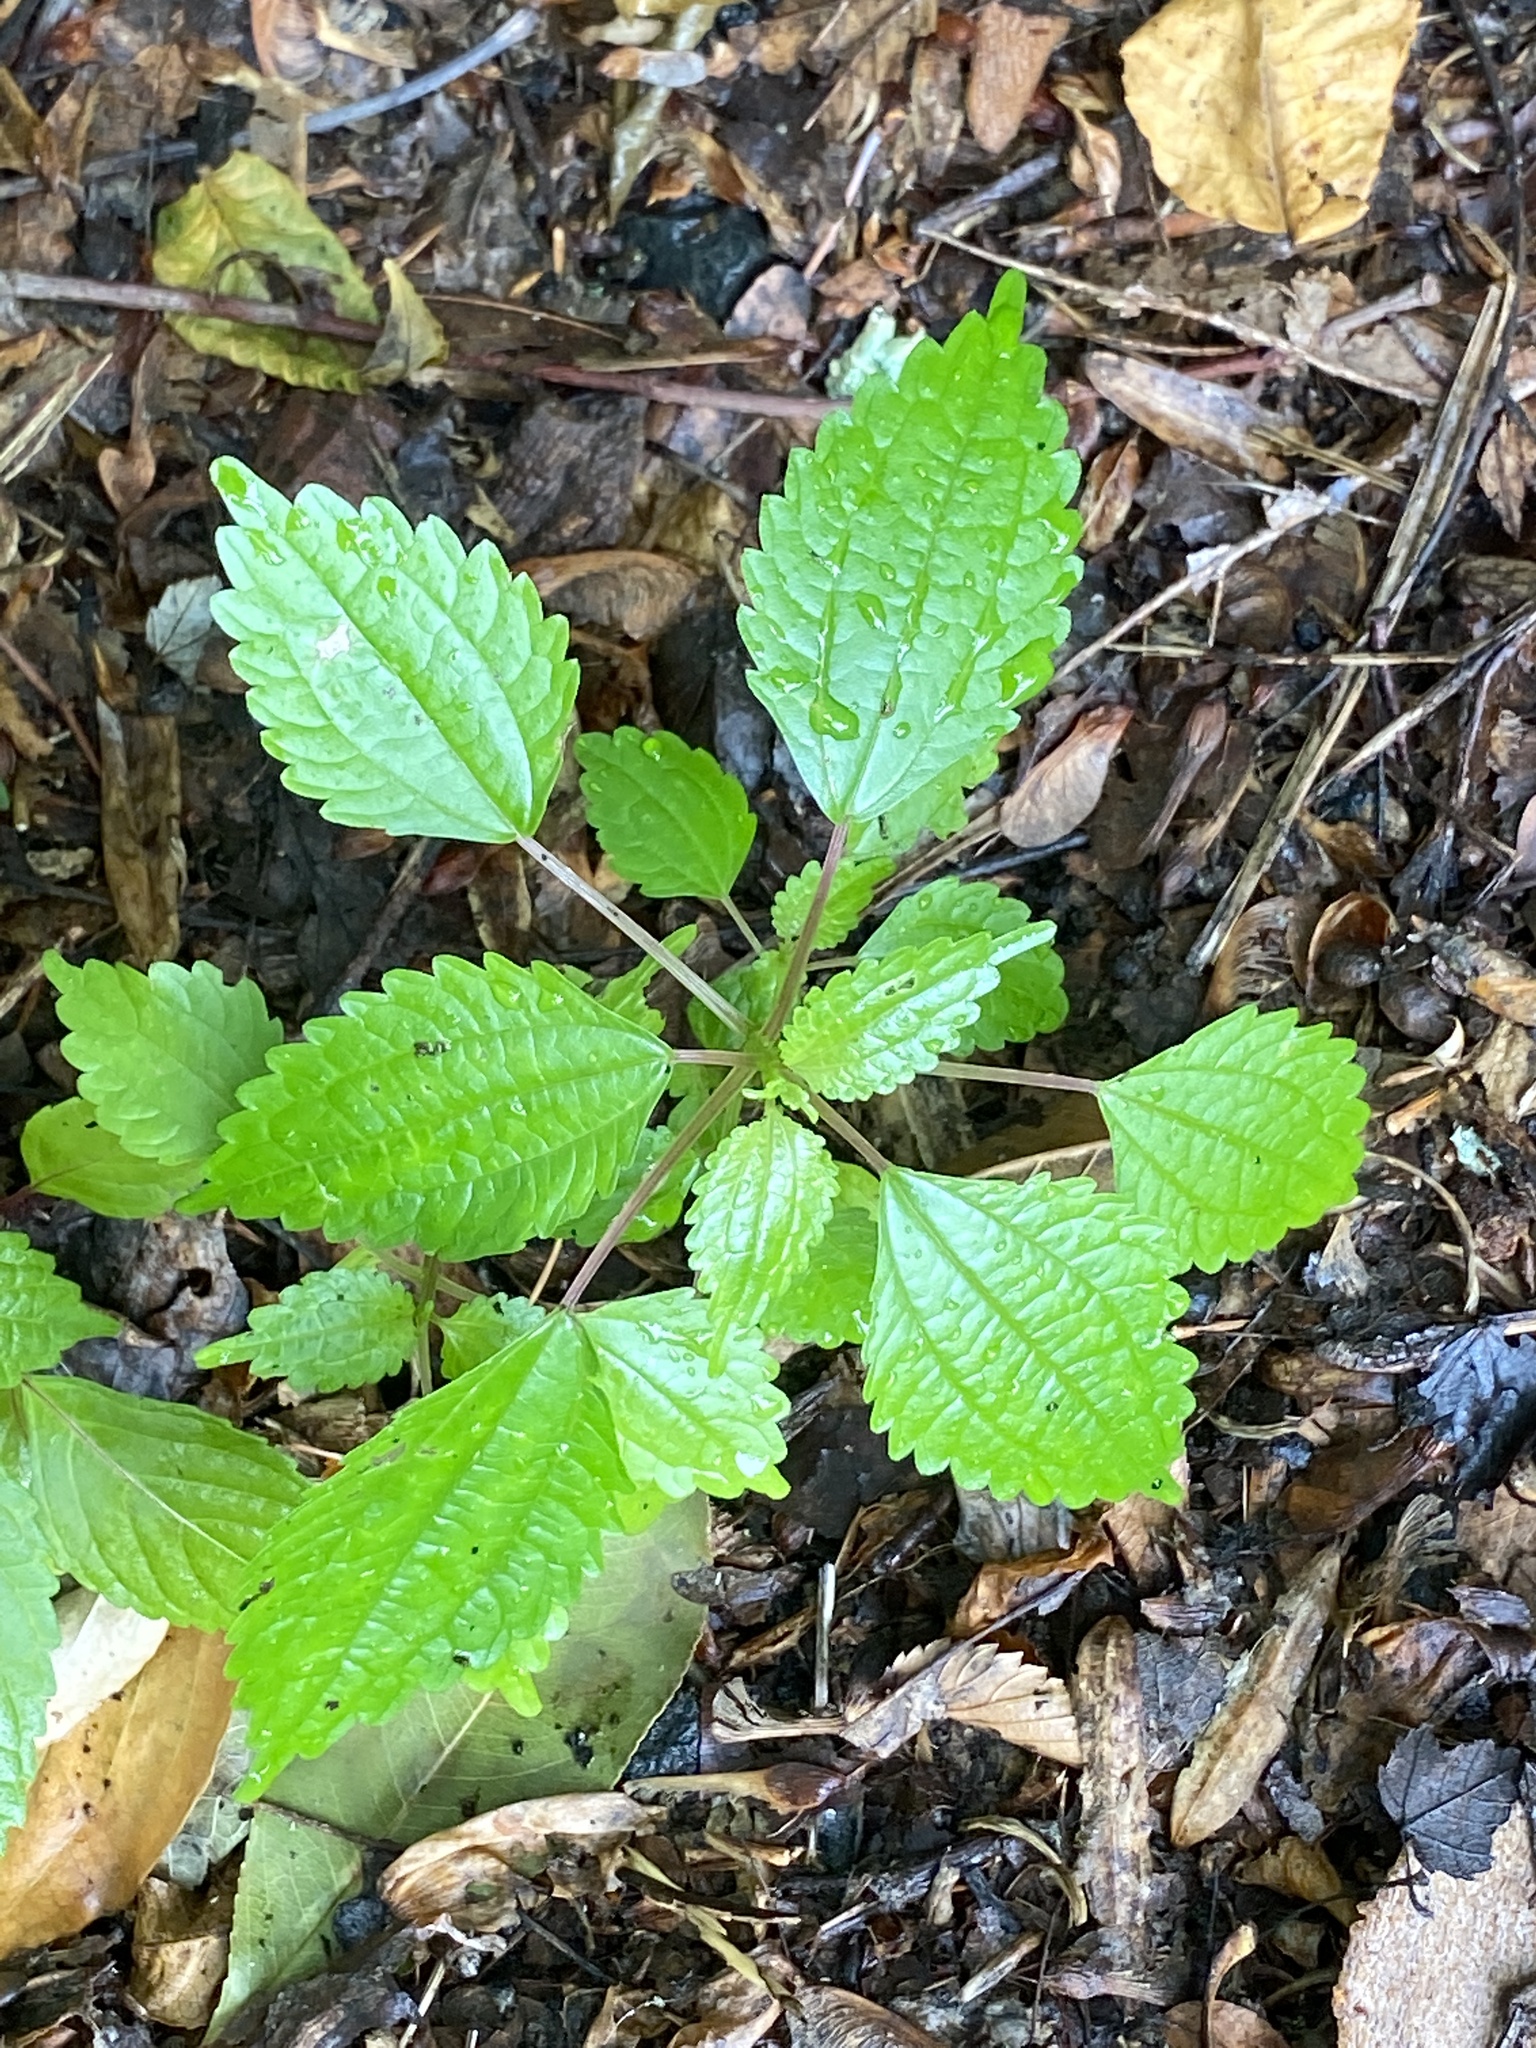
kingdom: Plantae
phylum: Tracheophyta
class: Magnoliopsida
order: Rosales
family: Urticaceae
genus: Pilea
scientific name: Pilea pumila
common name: Clearweed
